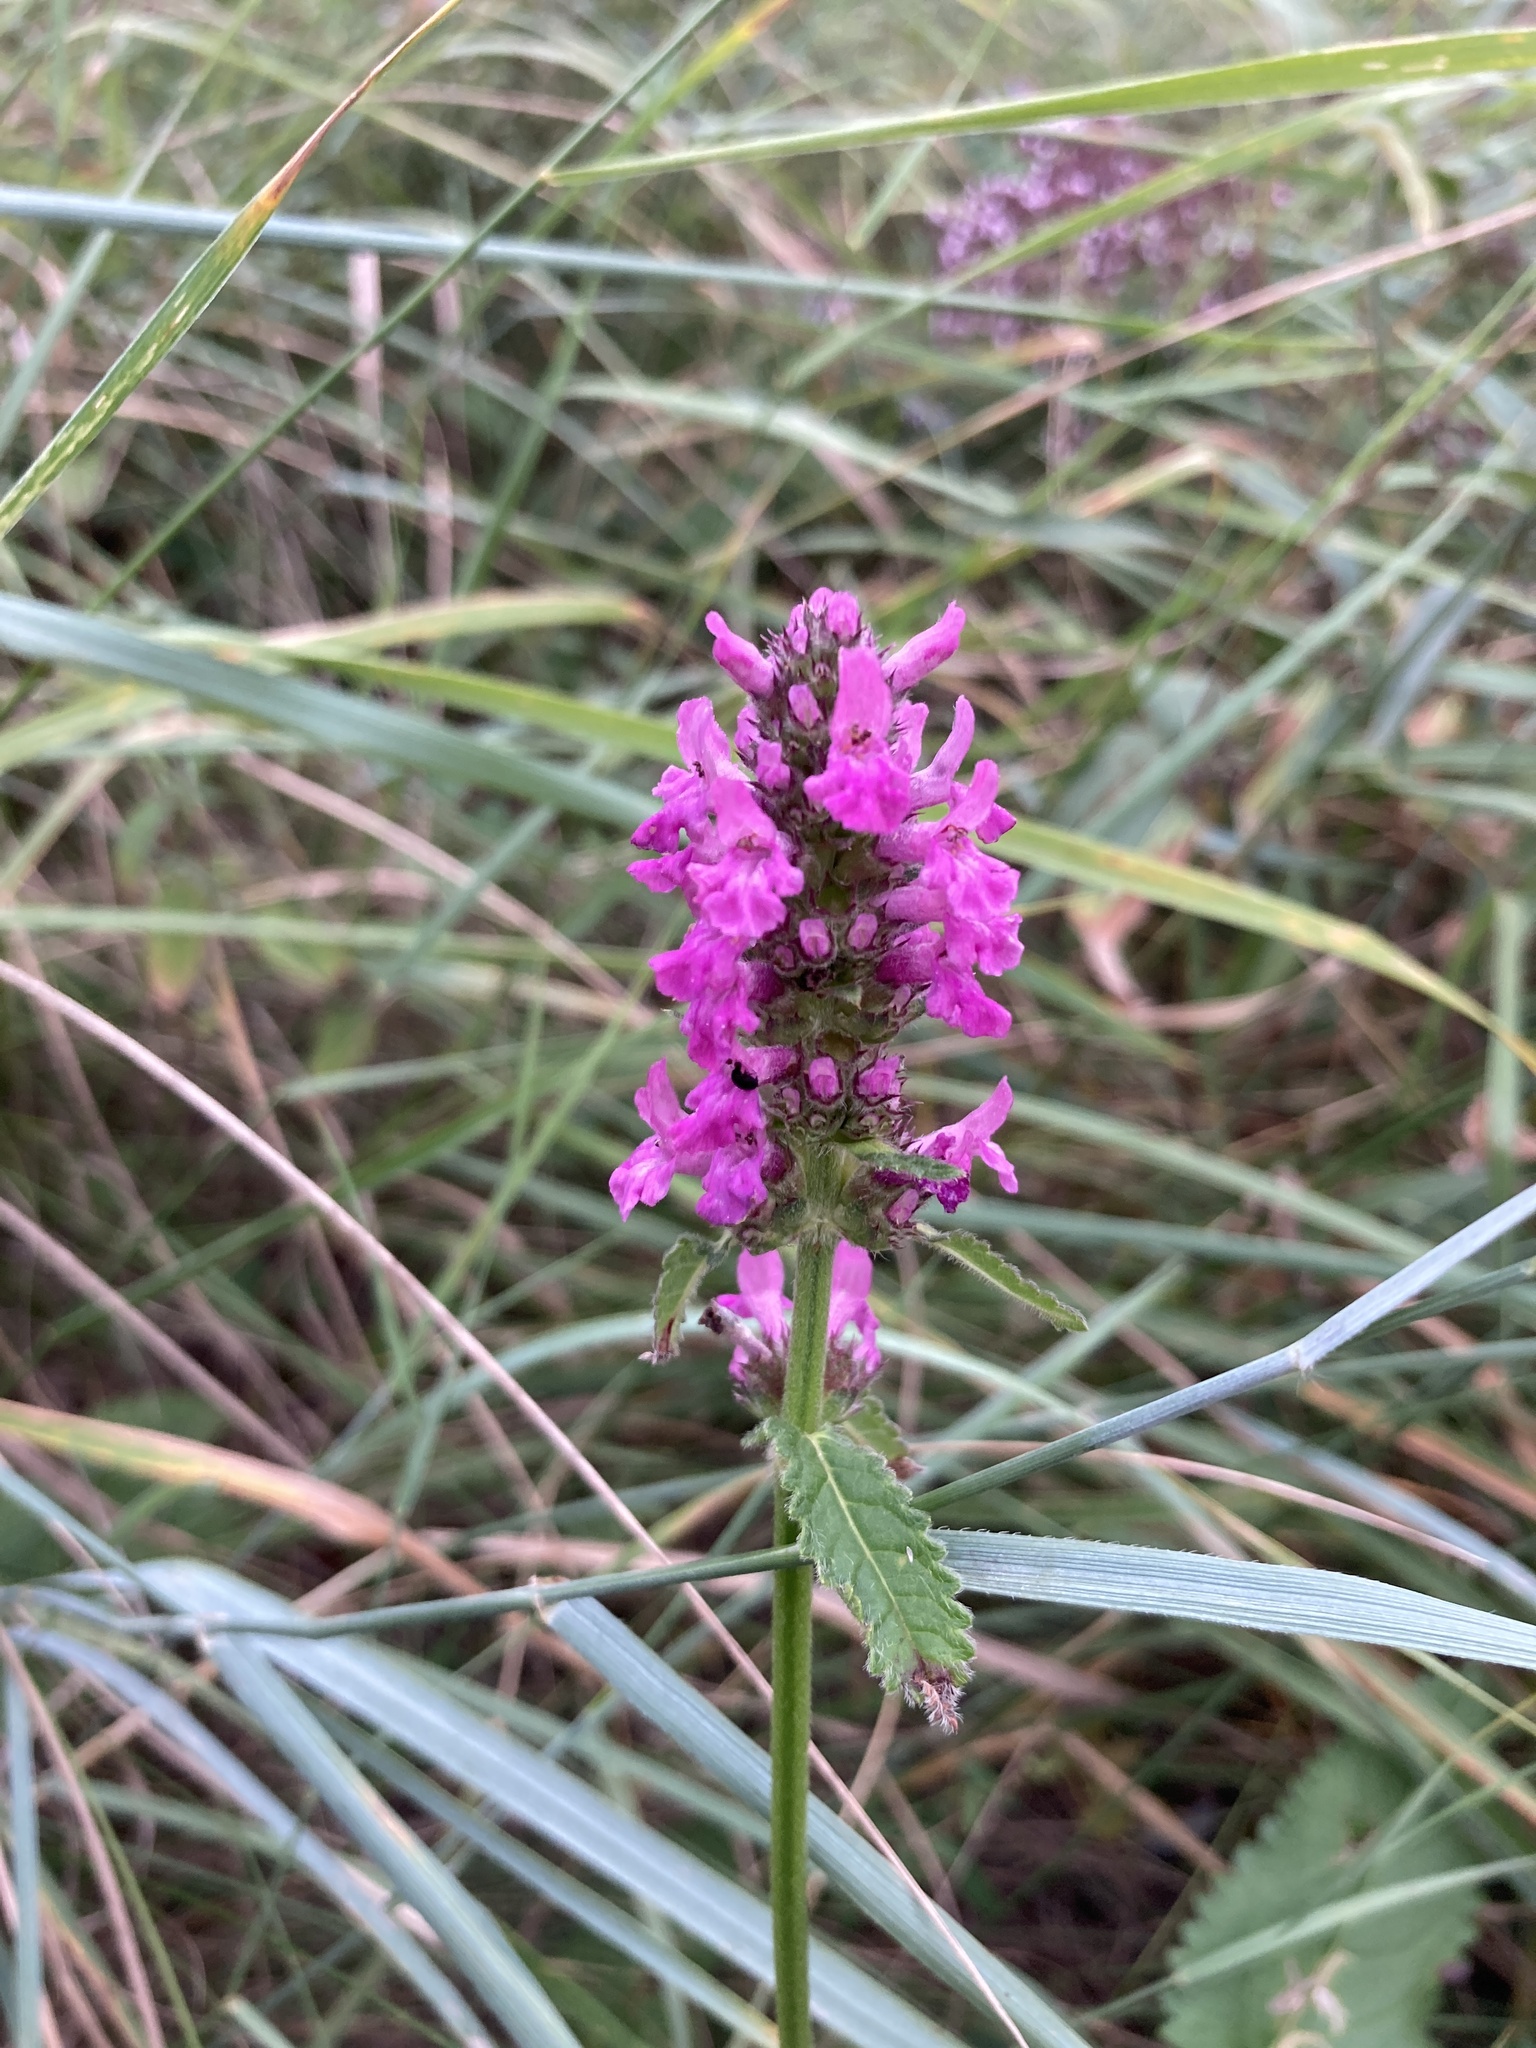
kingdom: Plantae
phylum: Tracheophyta
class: Magnoliopsida
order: Lamiales
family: Lamiaceae
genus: Betonica
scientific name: Betonica officinalis
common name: Bishop's-wort
